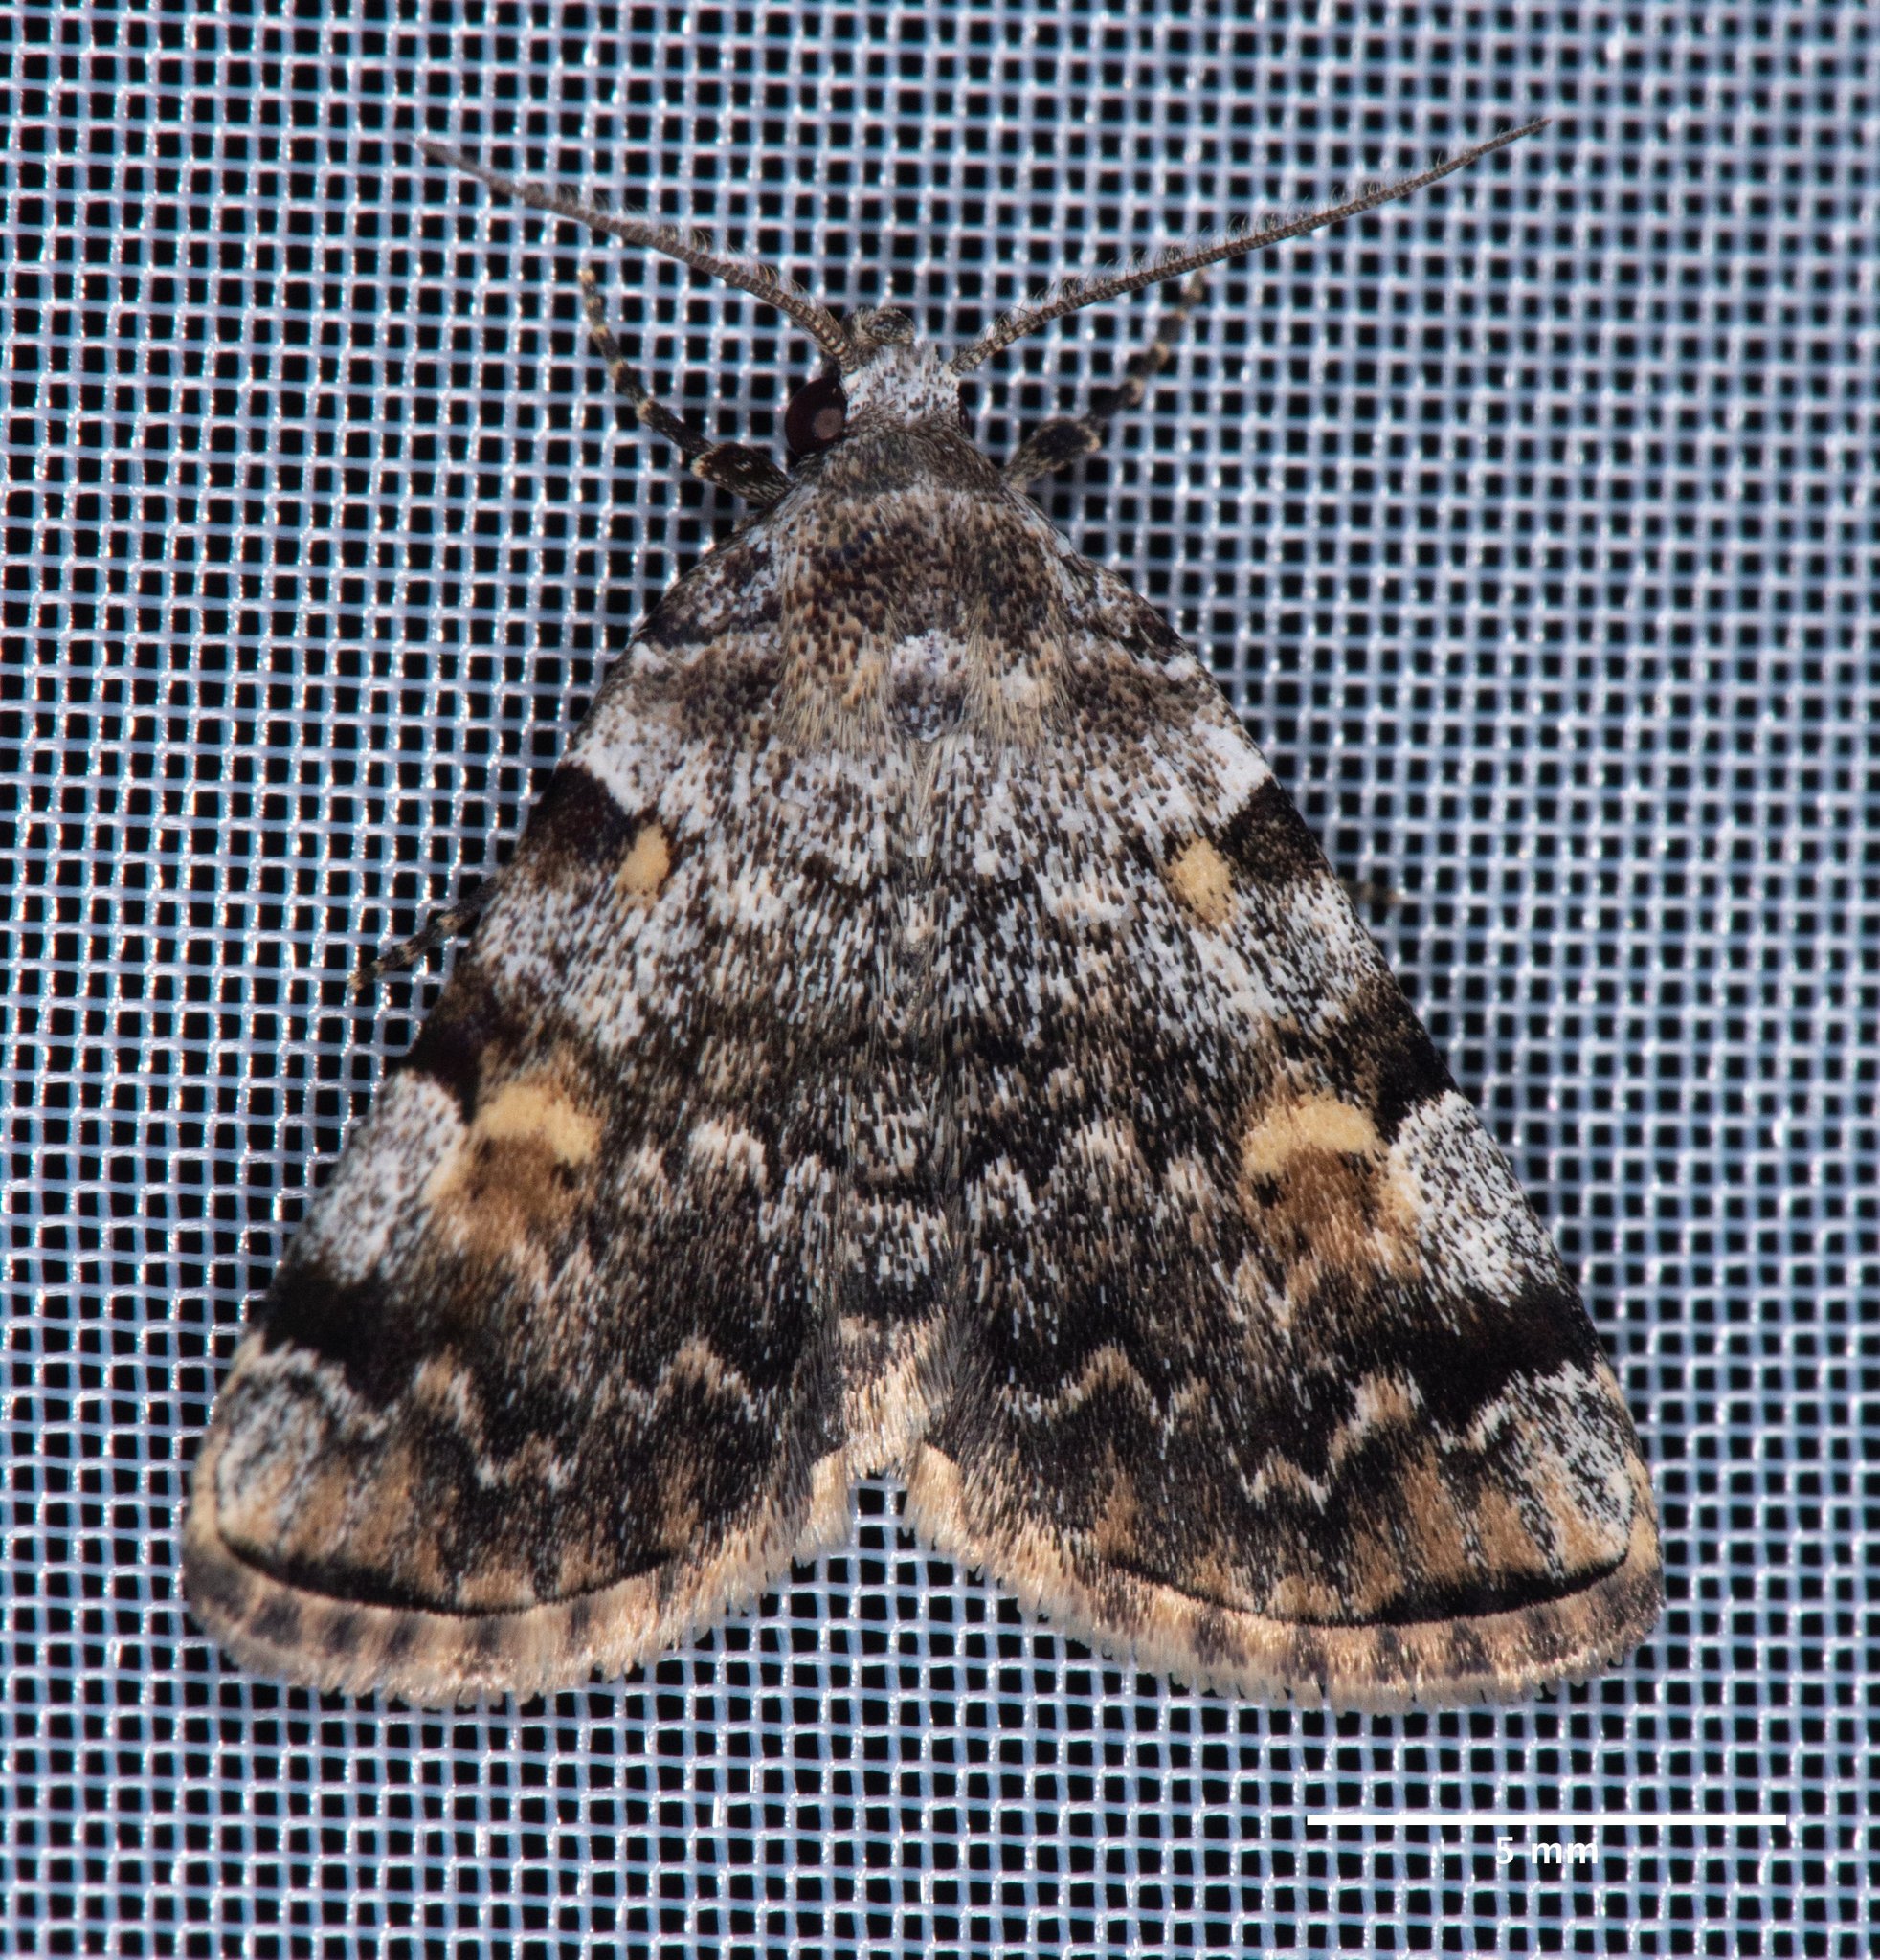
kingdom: Animalia
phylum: Arthropoda
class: Insecta
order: Lepidoptera
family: Erebidae
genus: Idia
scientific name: Idia americalis
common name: American idia moth
